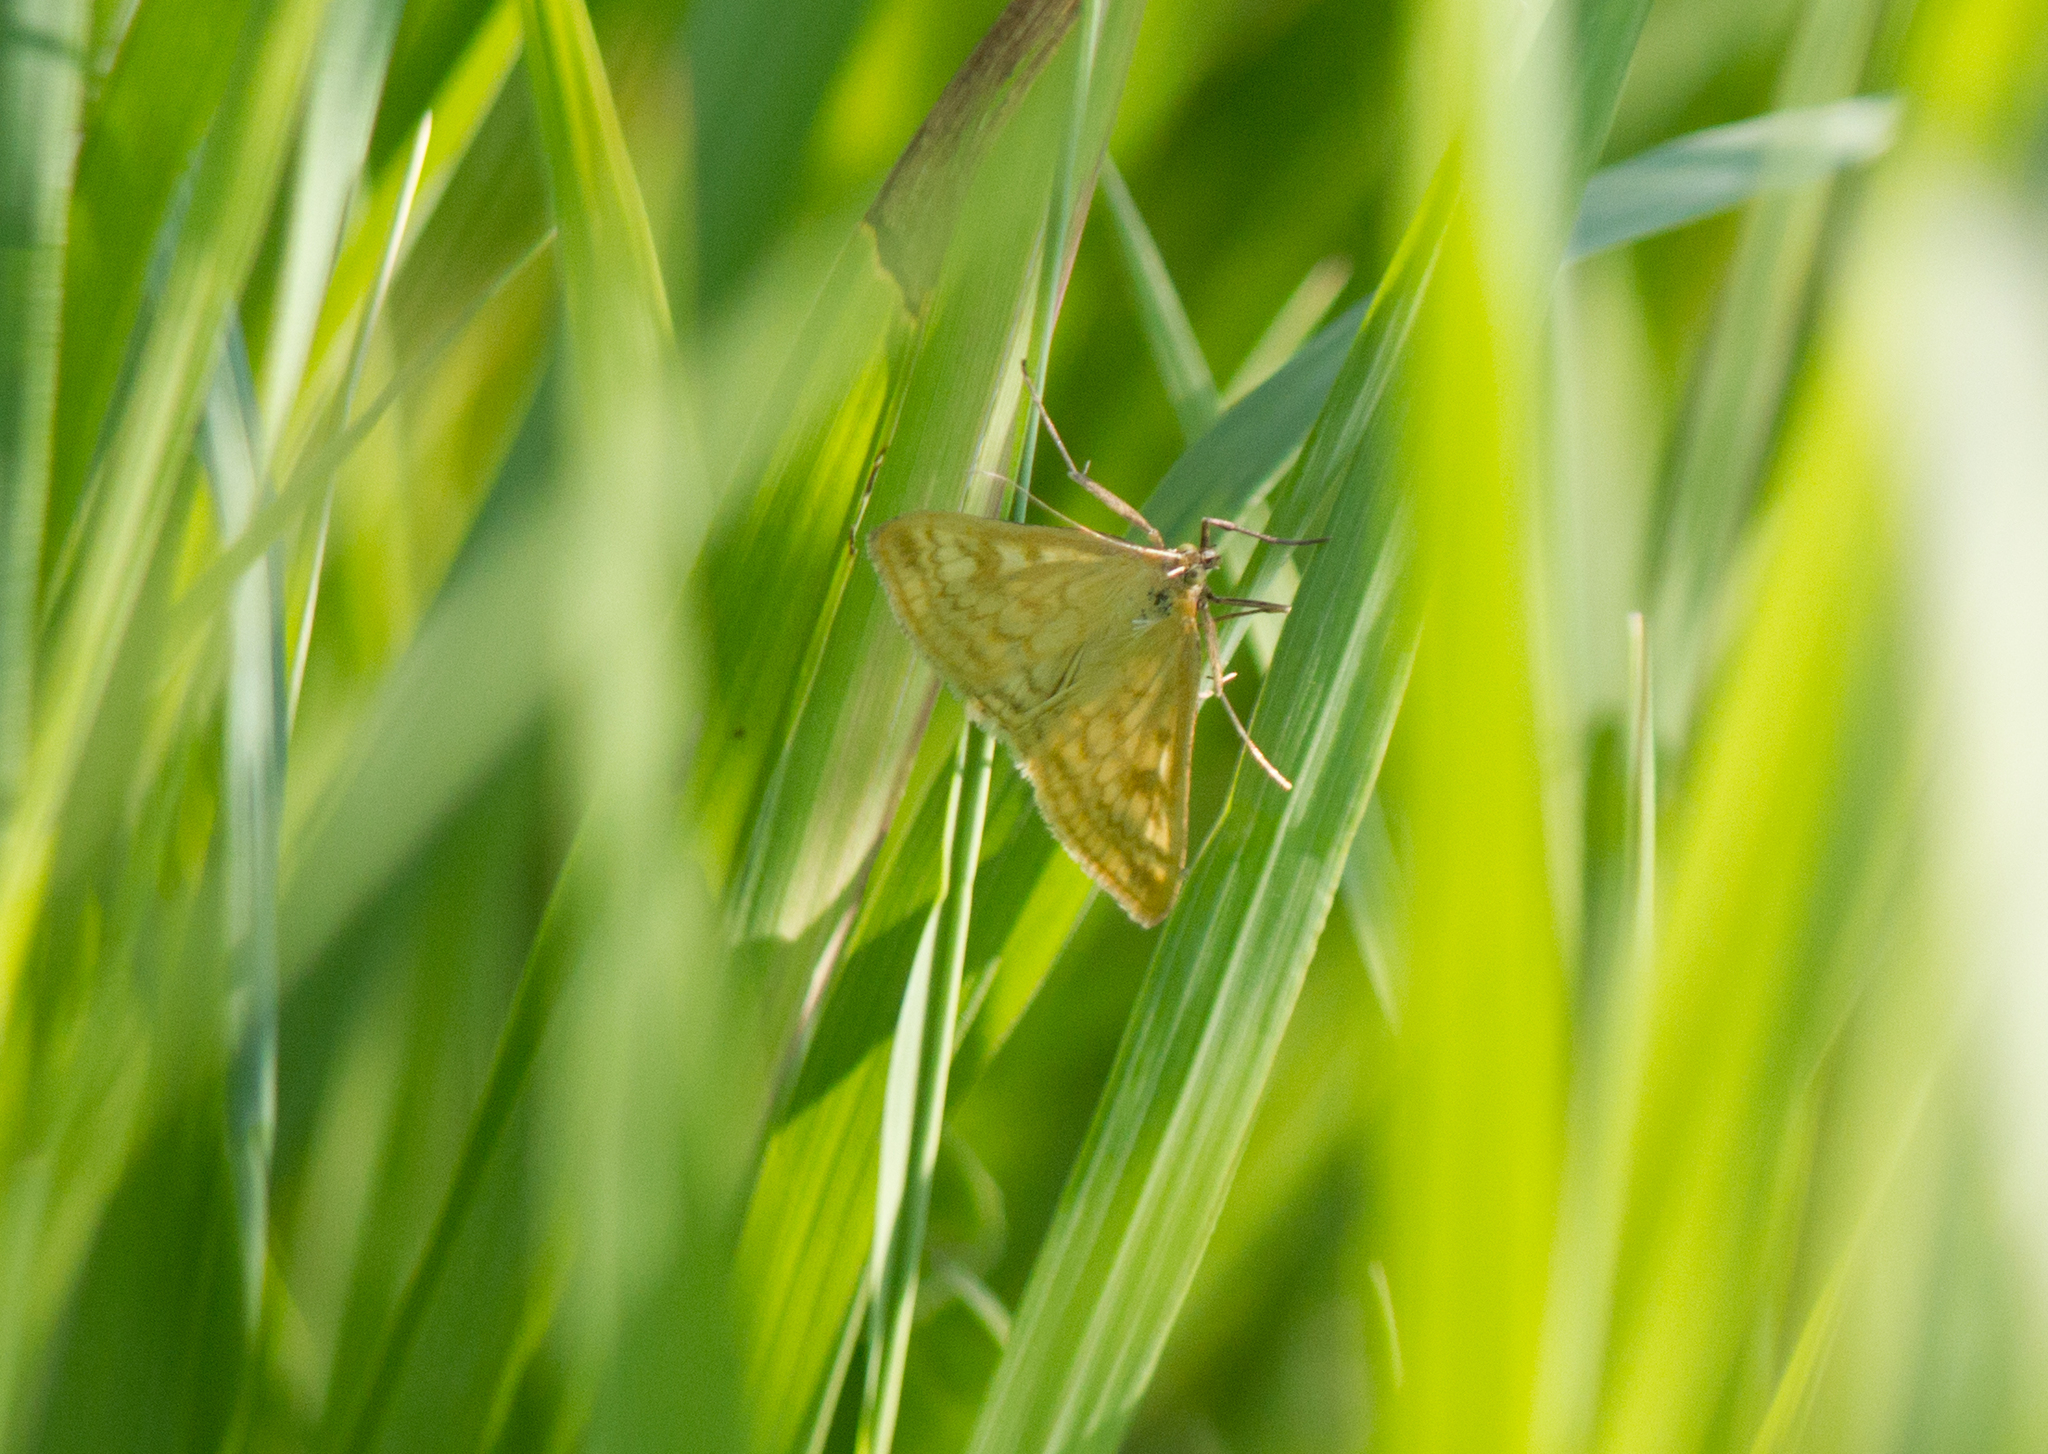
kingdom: Animalia
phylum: Arthropoda
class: Insecta
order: Lepidoptera
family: Crambidae
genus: Sitochroa
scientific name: Sitochroa verticalis
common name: Lesser pearl
